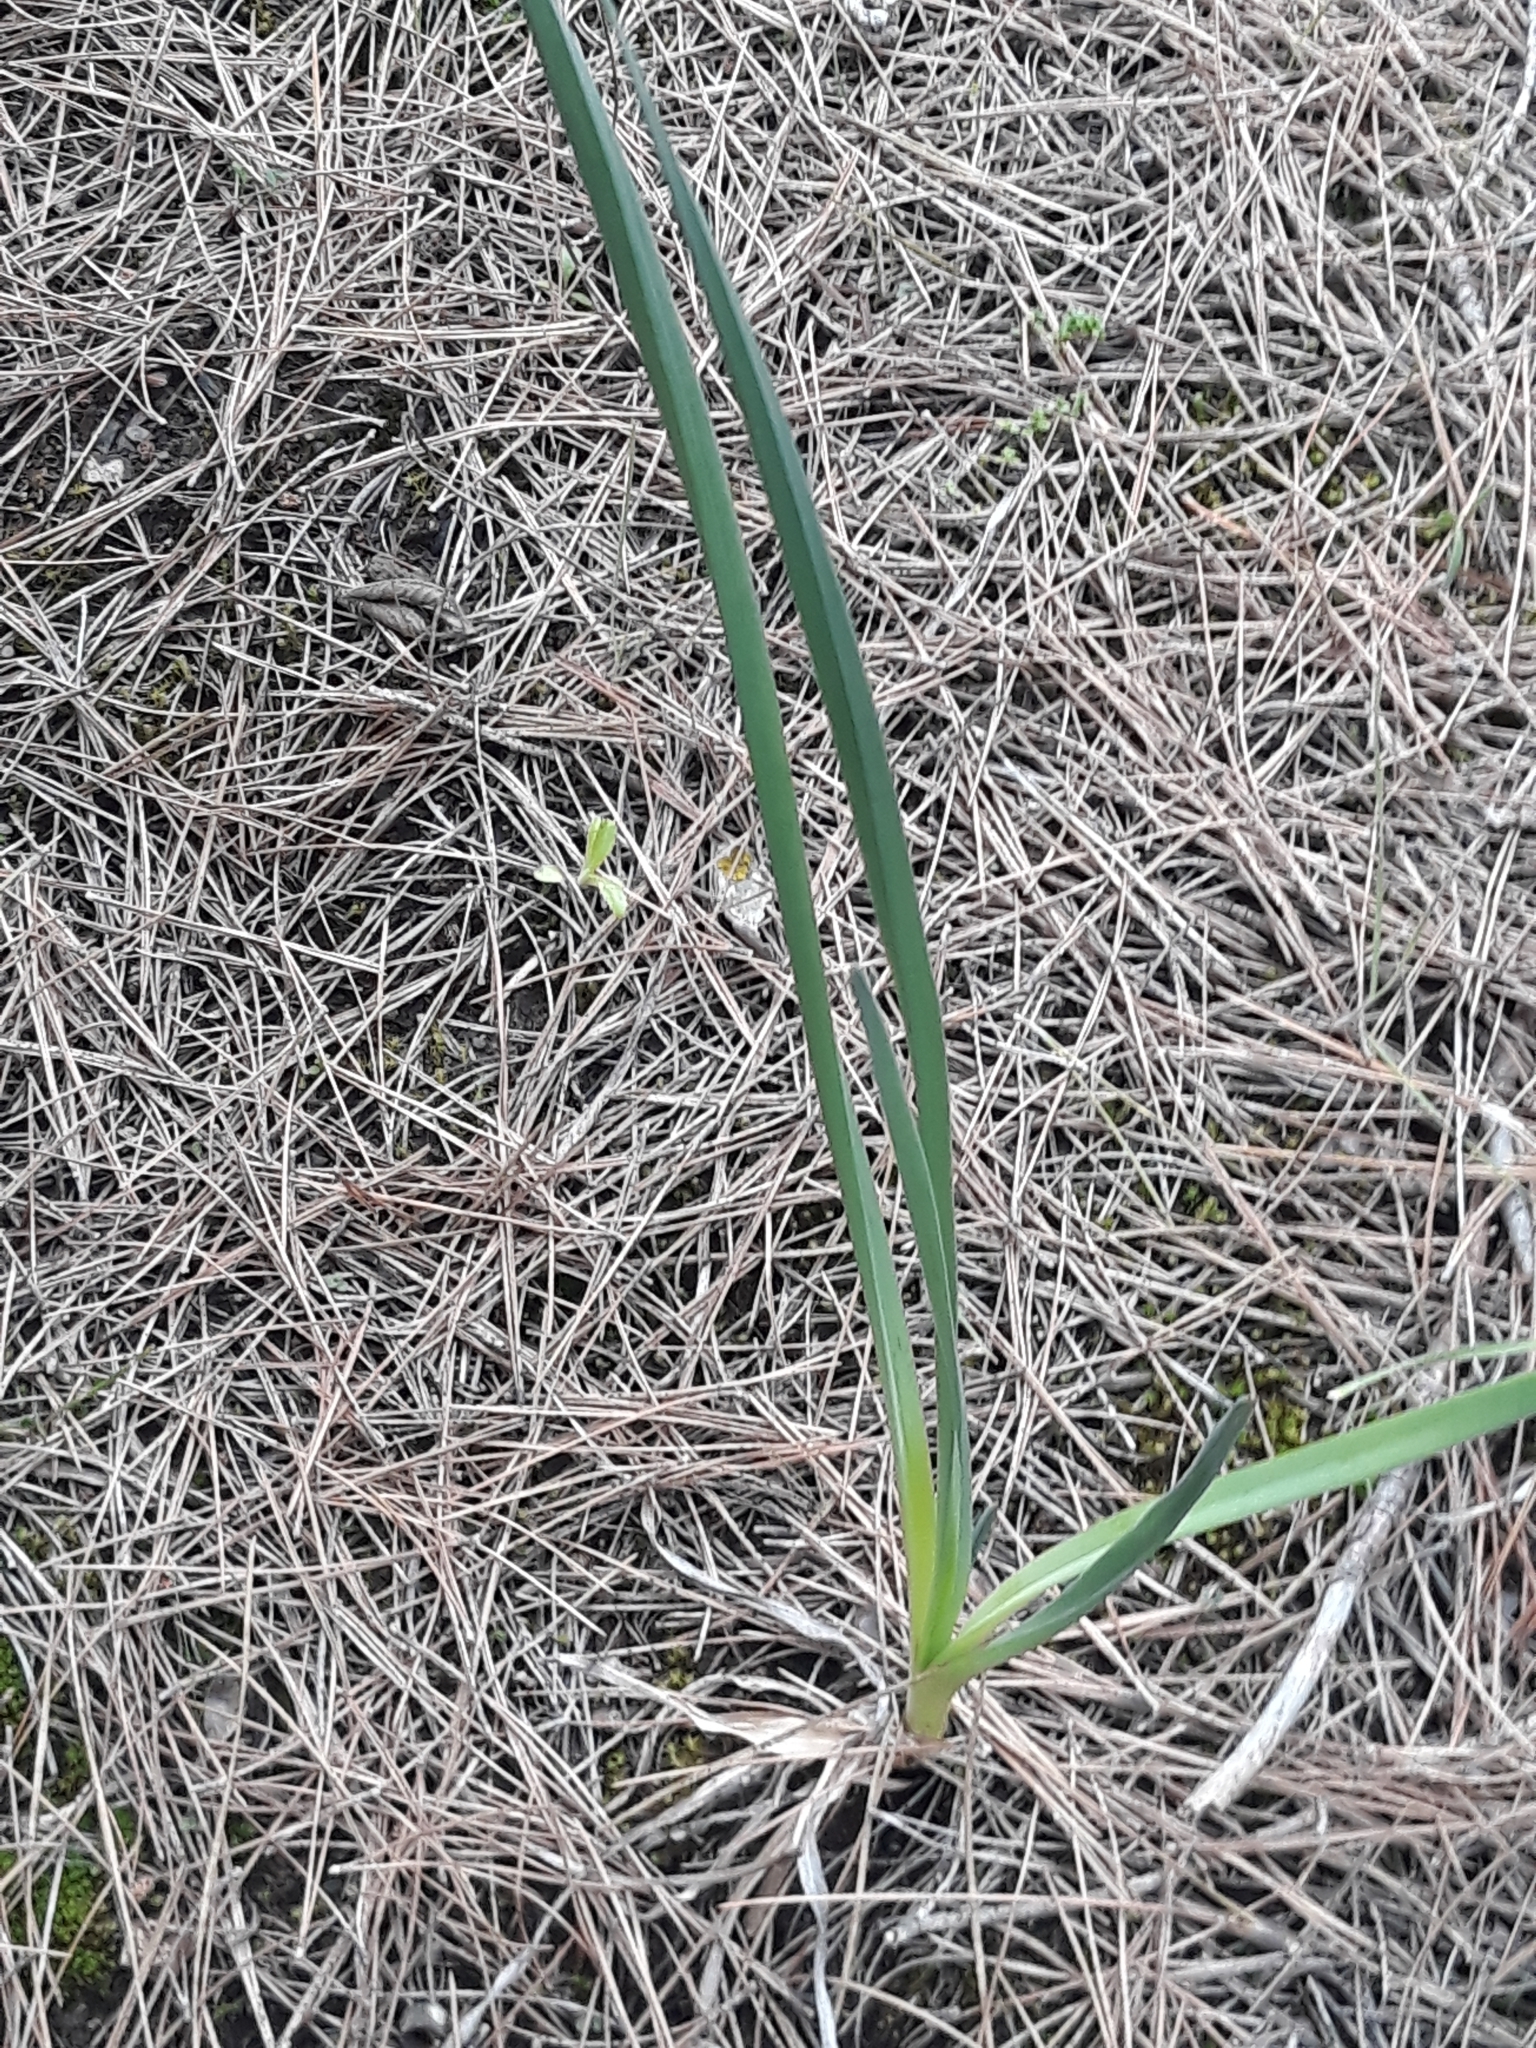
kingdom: Plantae
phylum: Tracheophyta
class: Liliopsida
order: Asparagales
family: Asphodelaceae
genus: Asphodelus
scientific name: Asphodelus ramosus
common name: Silverrod
